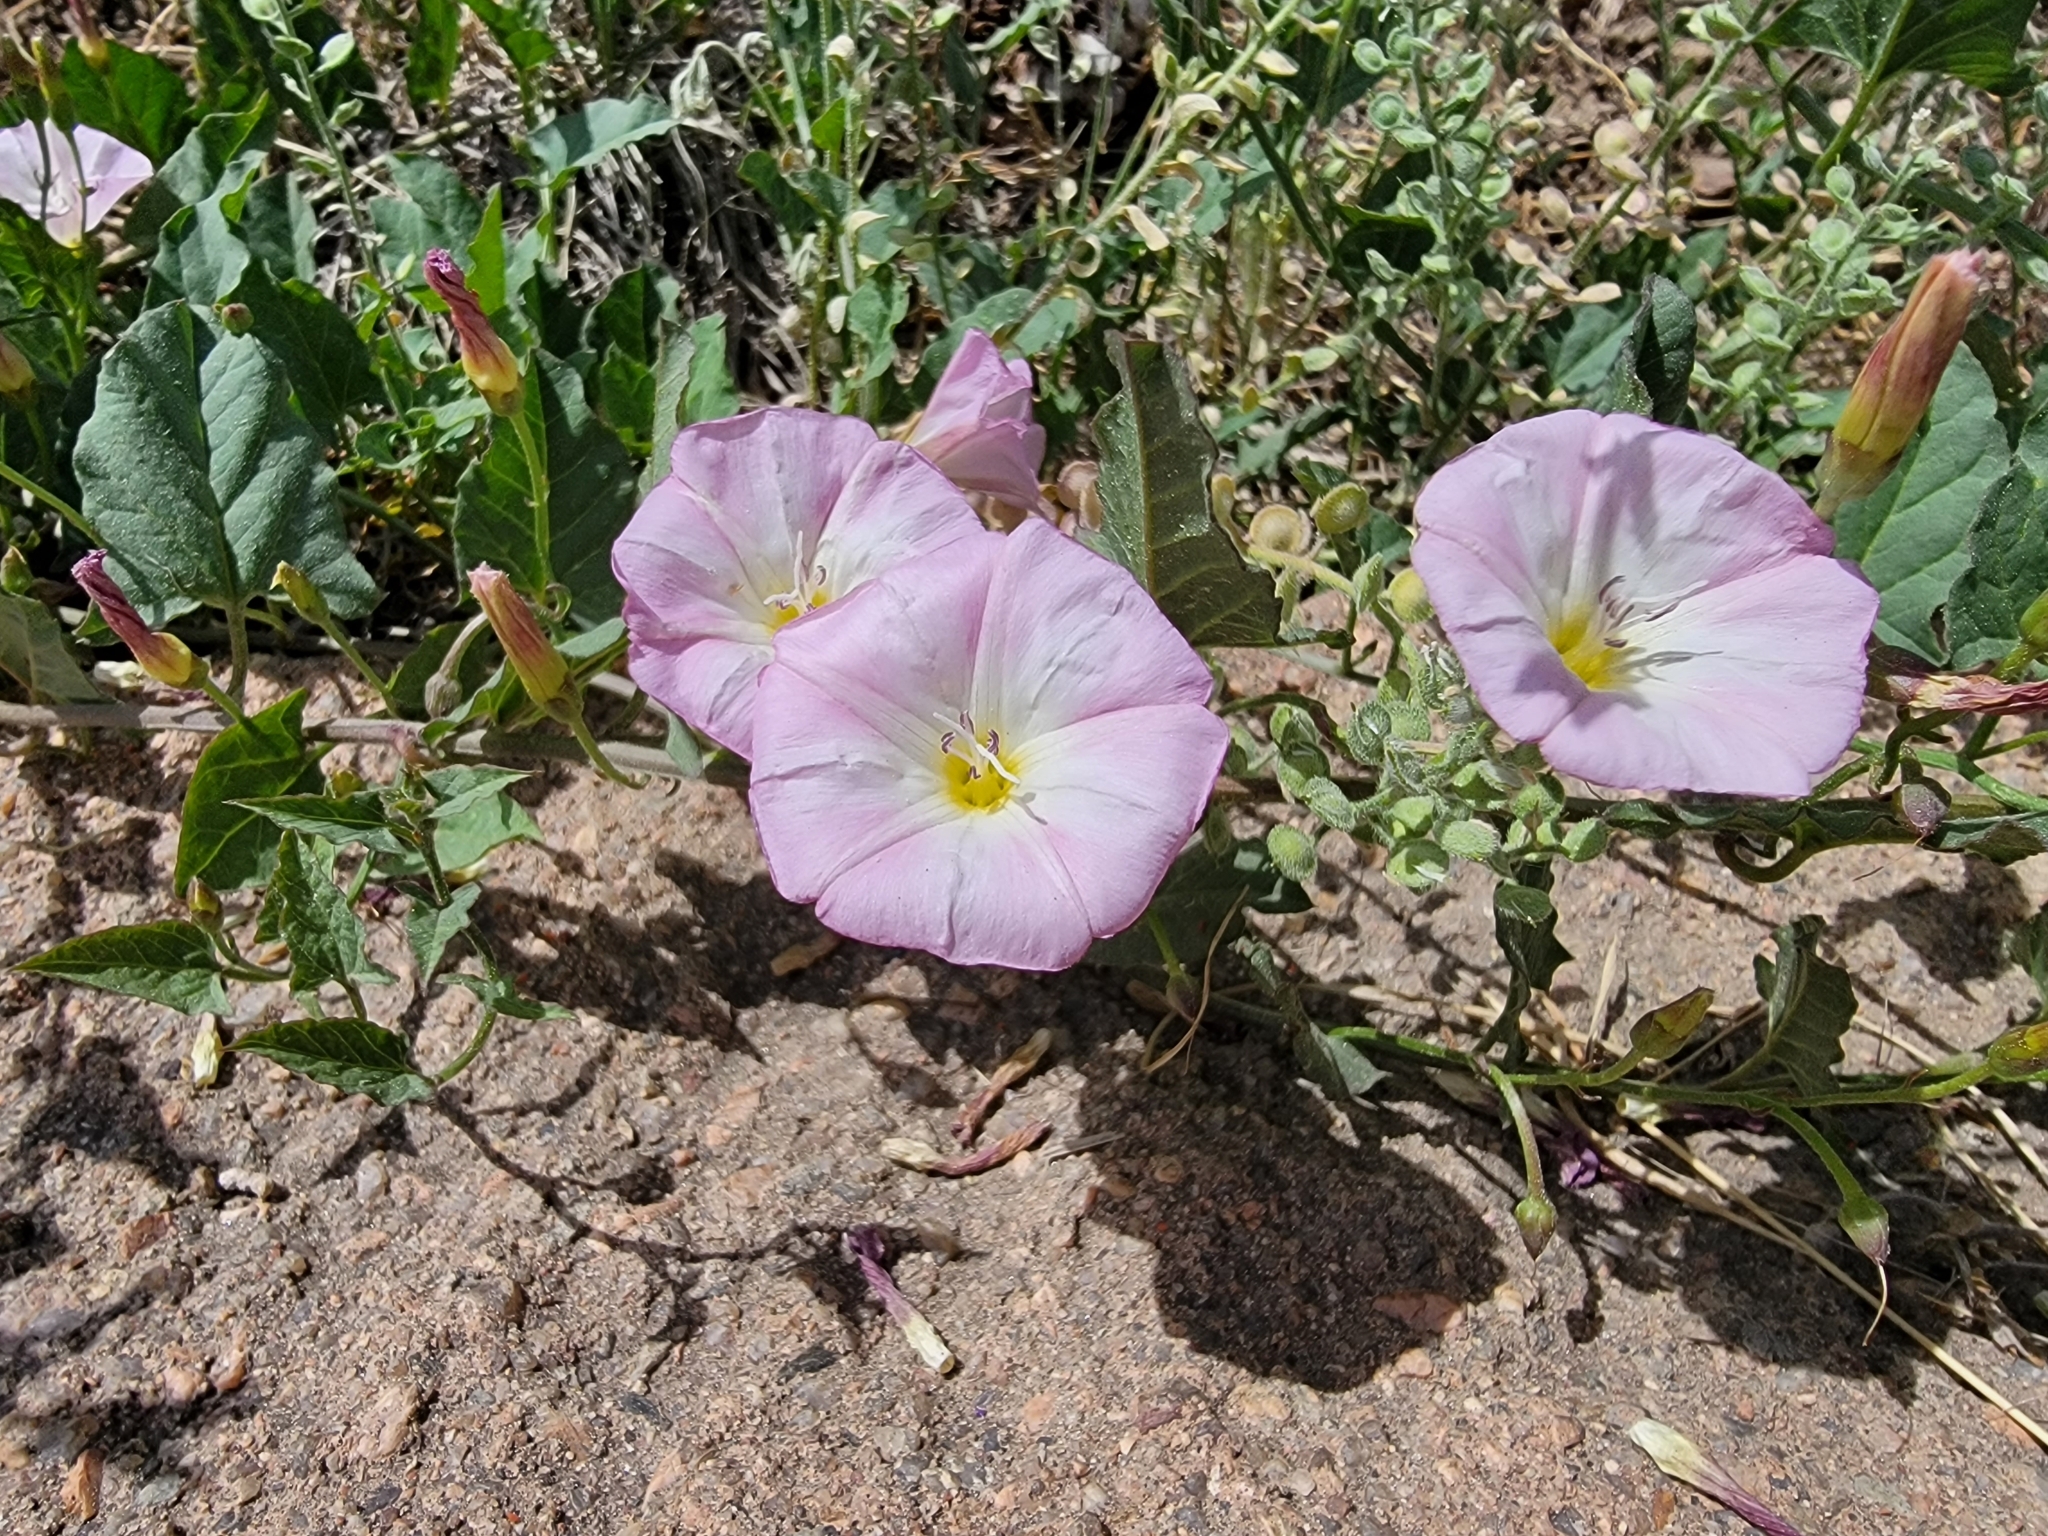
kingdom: Plantae
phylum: Tracheophyta
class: Magnoliopsida
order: Solanales
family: Convolvulaceae
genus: Convolvulus
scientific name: Convolvulus arvensis
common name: Field bindweed
